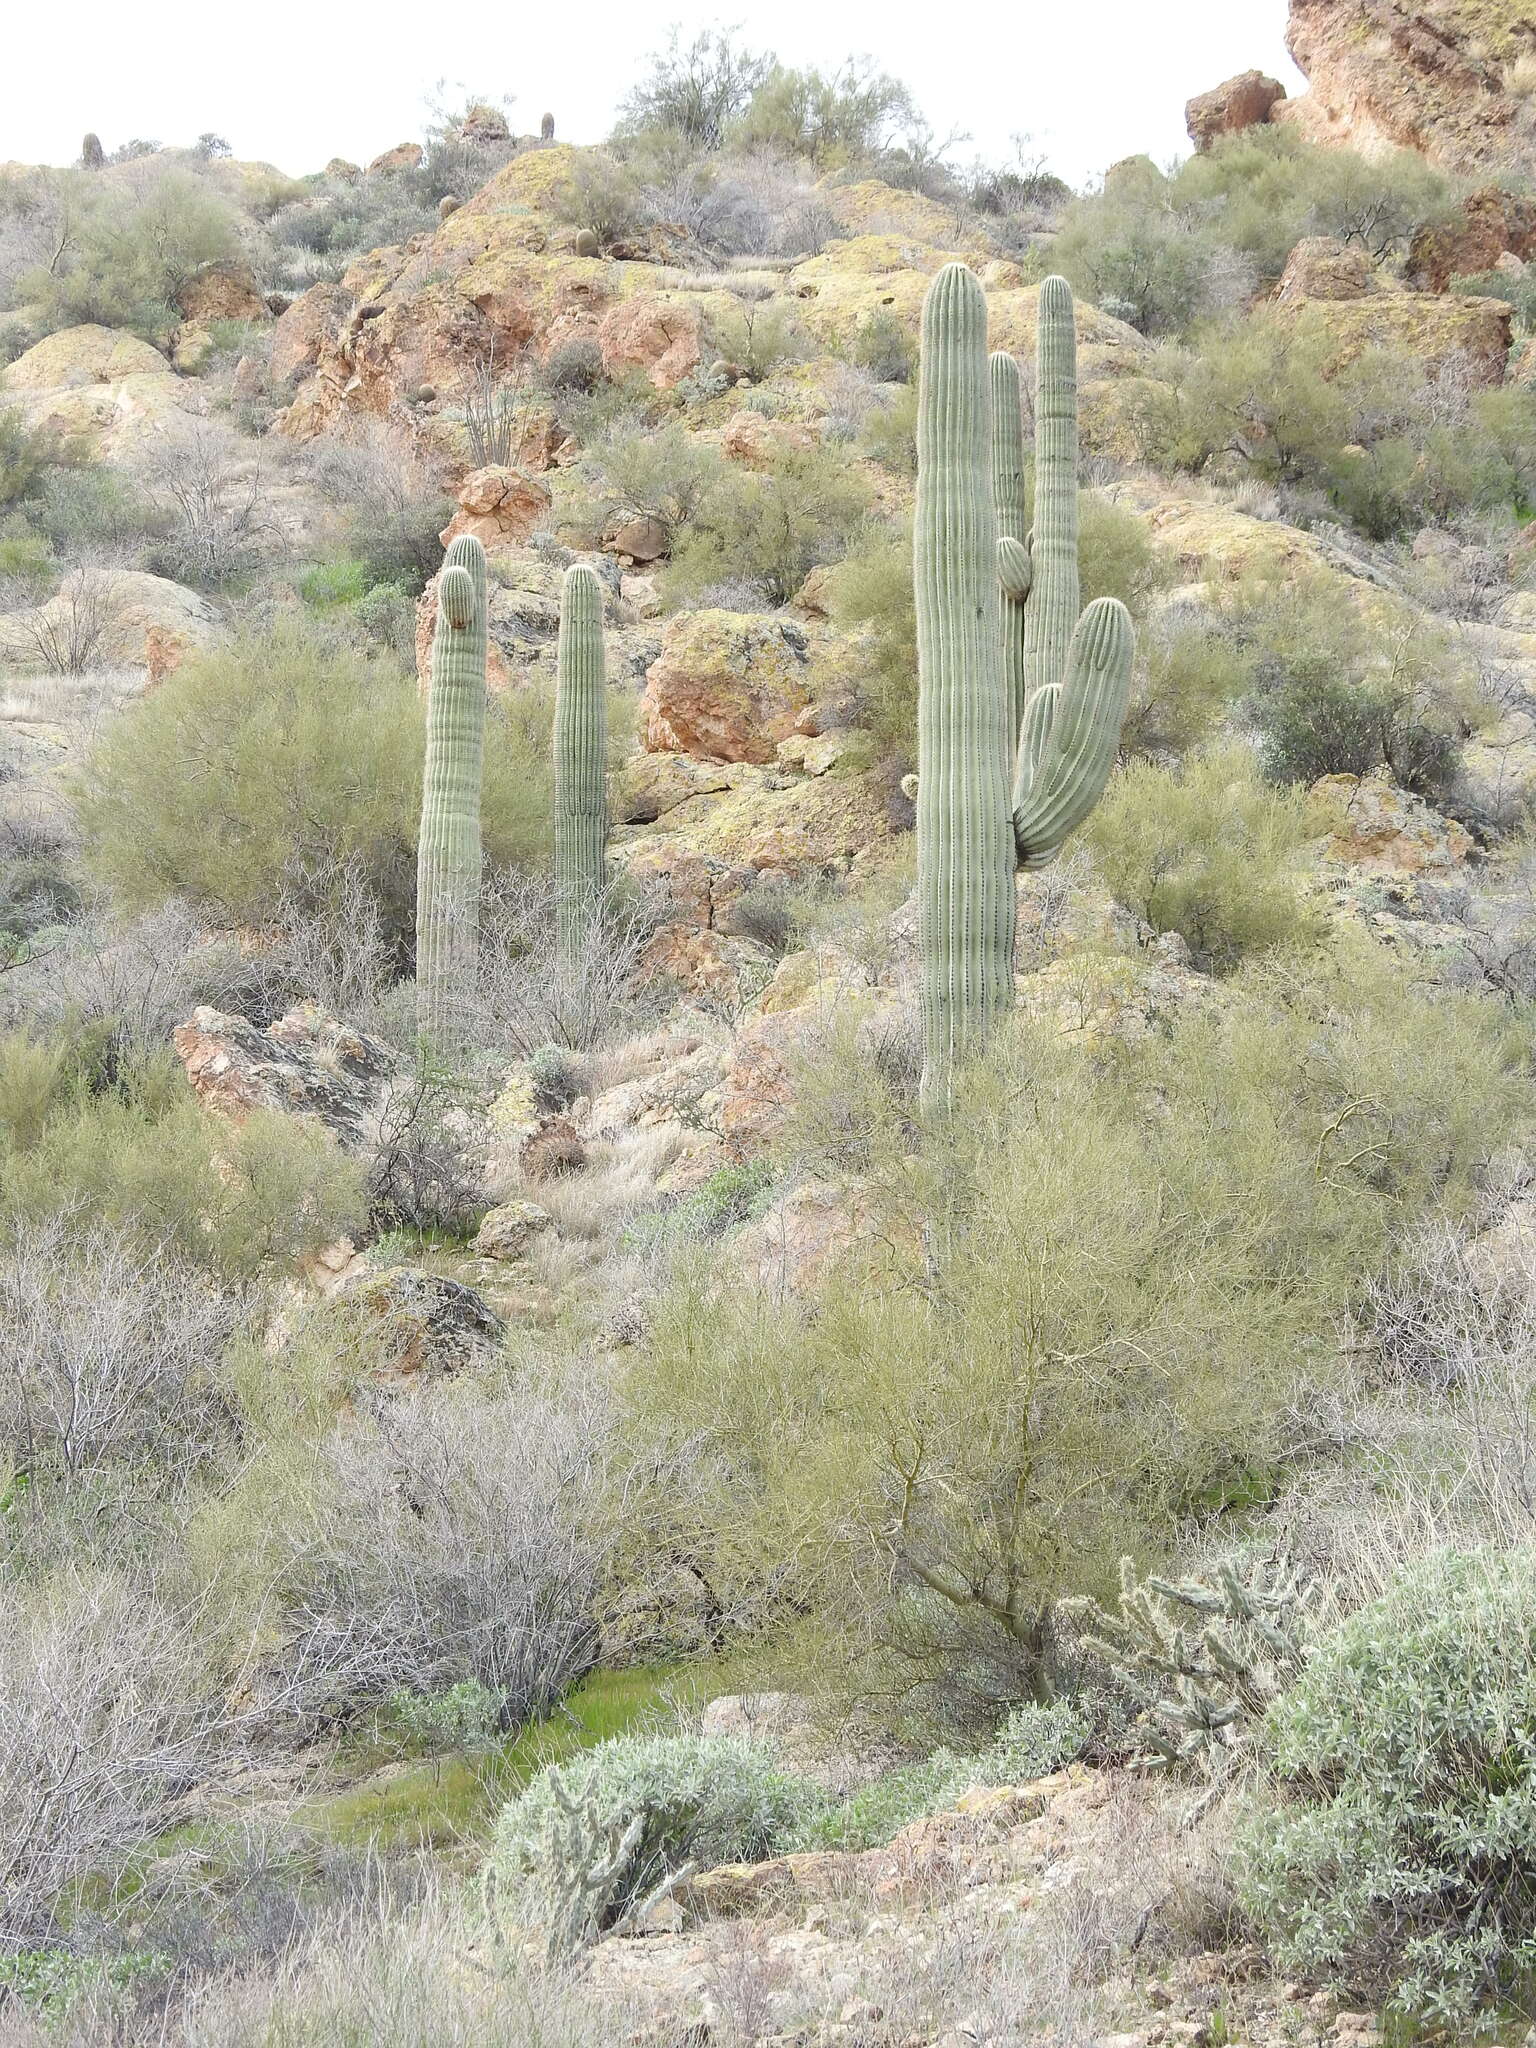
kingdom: Plantae
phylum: Tracheophyta
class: Magnoliopsida
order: Caryophyllales
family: Cactaceae
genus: Carnegiea
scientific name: Carnegiea gigantea
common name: Saguaro
